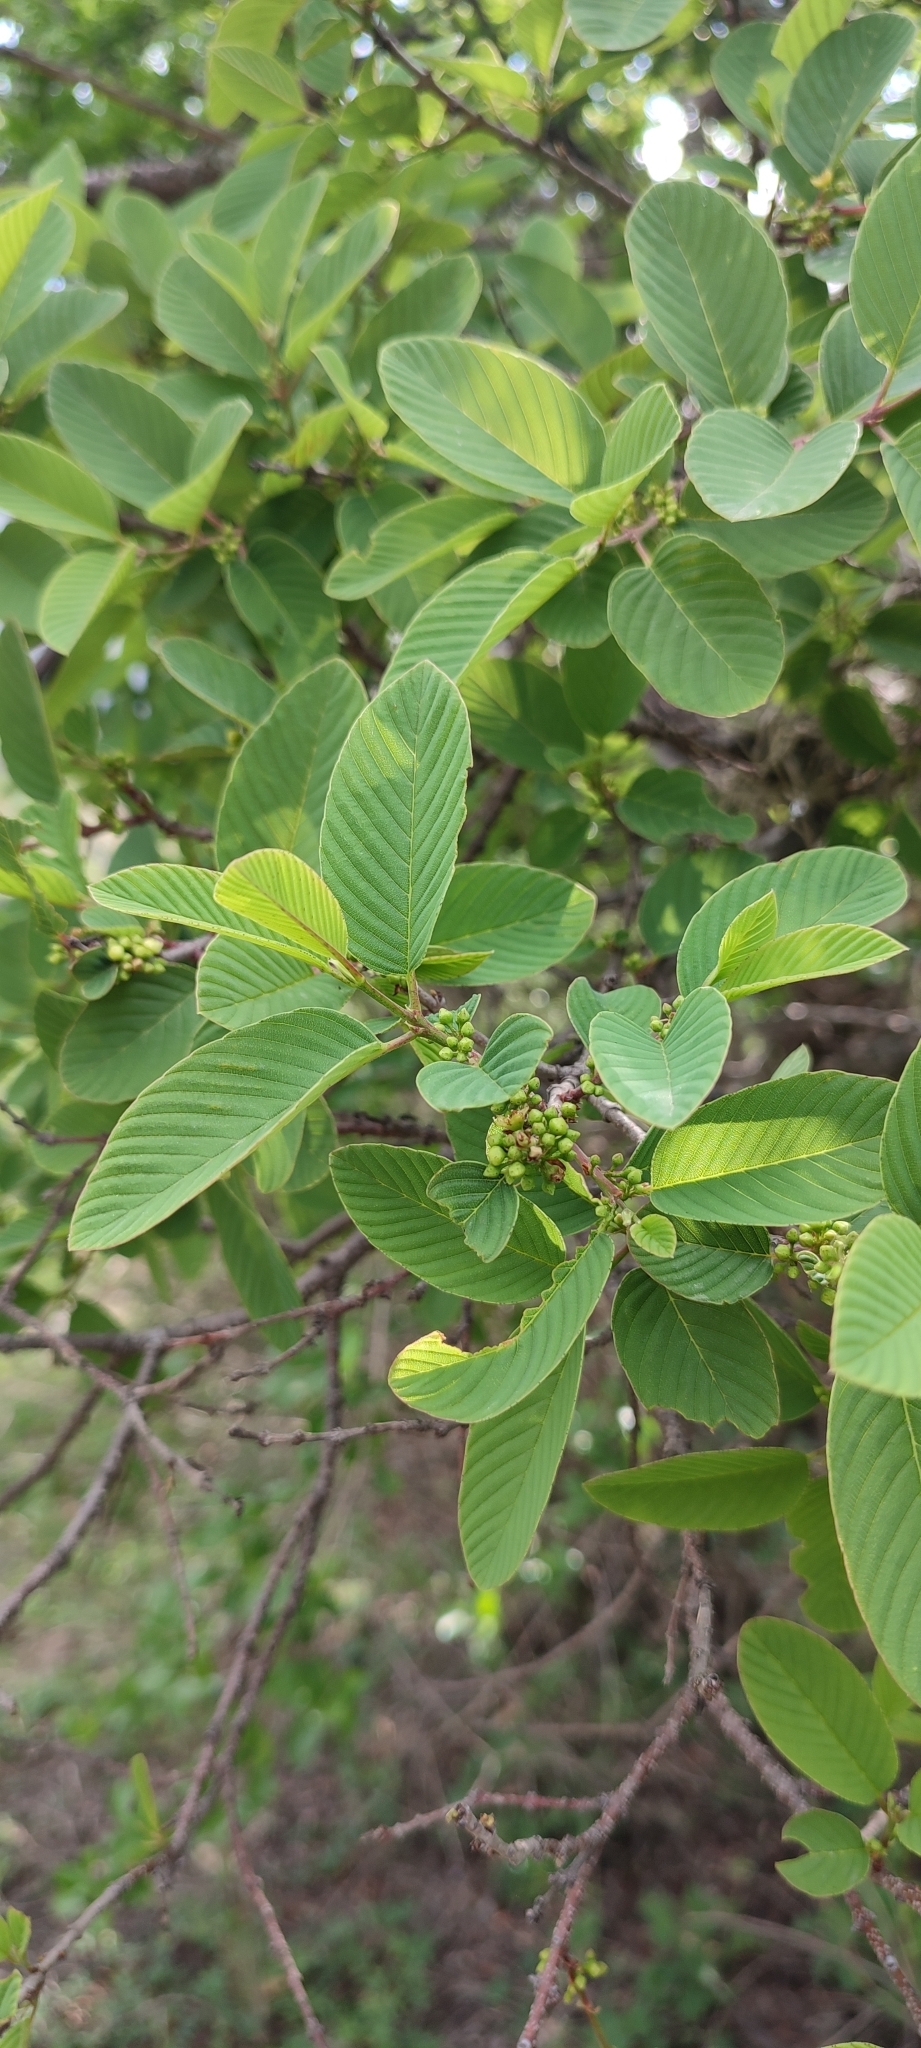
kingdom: Plantae
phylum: Tracheophyta
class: Magnoliopsida
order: Rosales
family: Rhamnaceae
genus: Karwinskia
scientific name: Karwinskia humboldtiana
